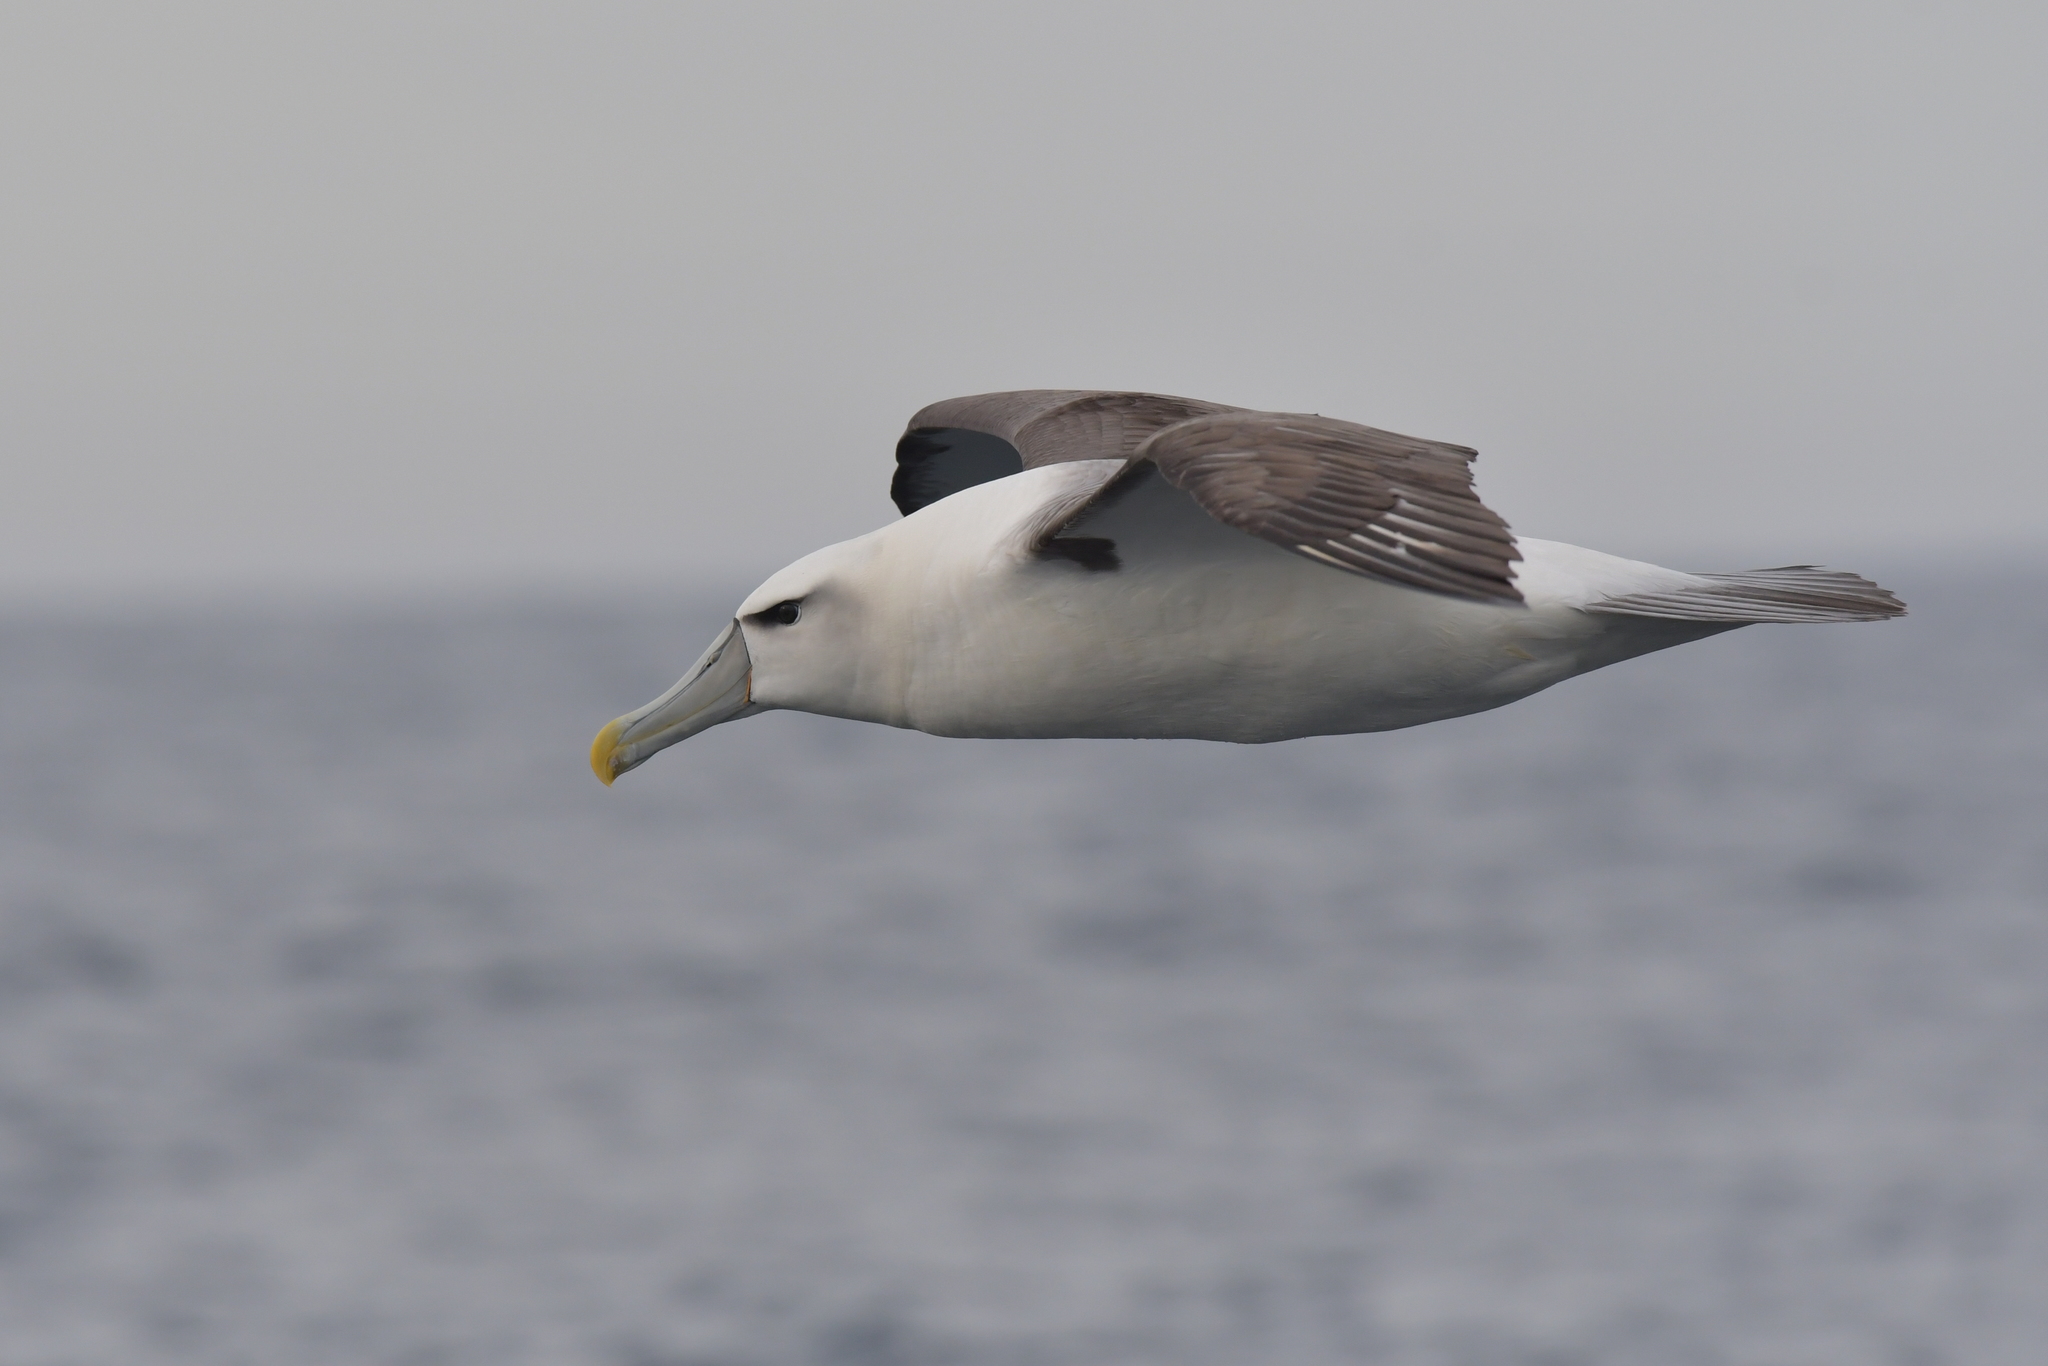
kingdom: Animalia
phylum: Chordata
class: Aves
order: Procellariiformes
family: Diomedeidae
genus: Thalassarche
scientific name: Thalassarche cauta
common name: Shy albatross
